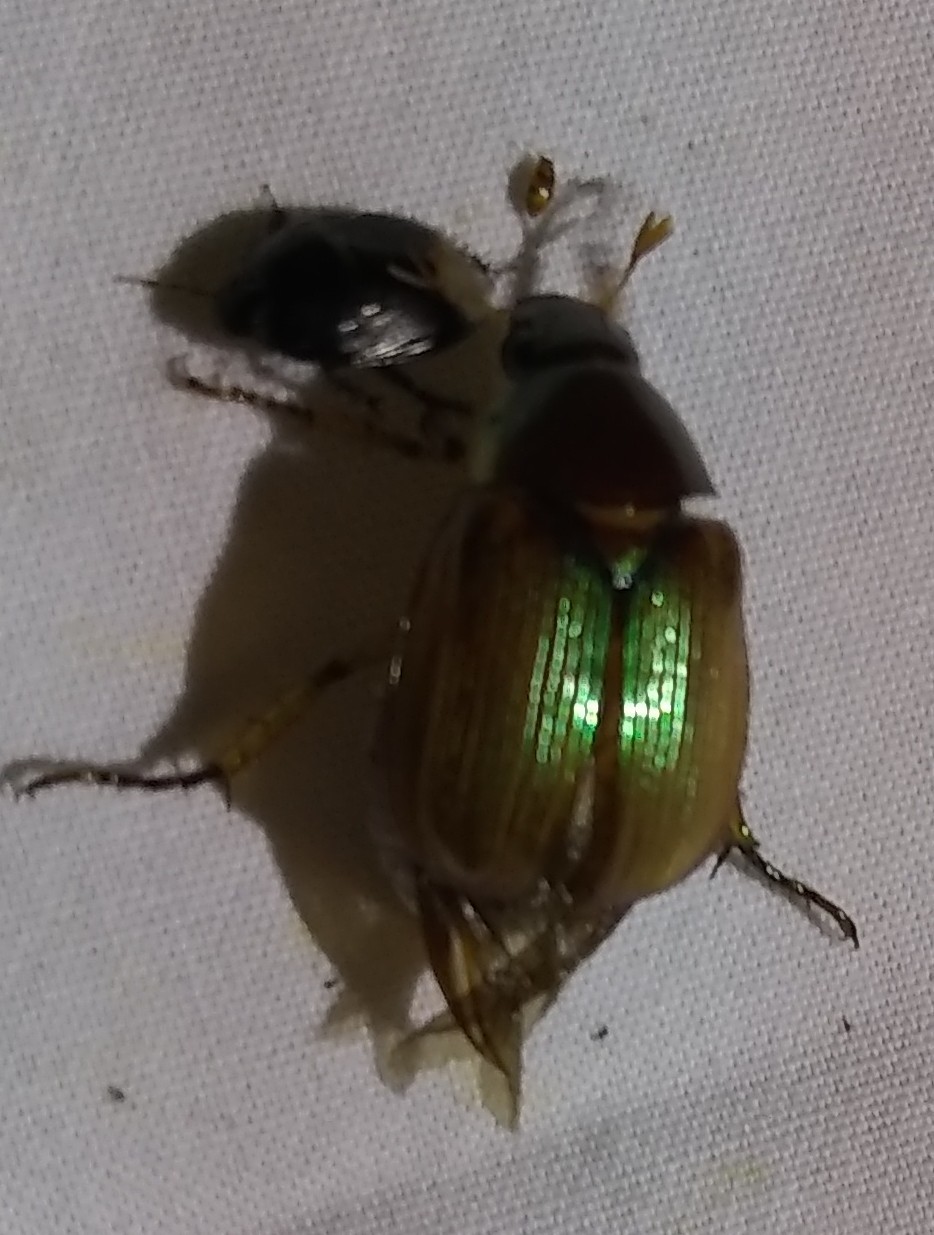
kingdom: Animalia
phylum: Arthropoda
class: Insecta
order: Coleoptera
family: Scarabaeidae
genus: Callistethus
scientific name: Callistethus marginatus
